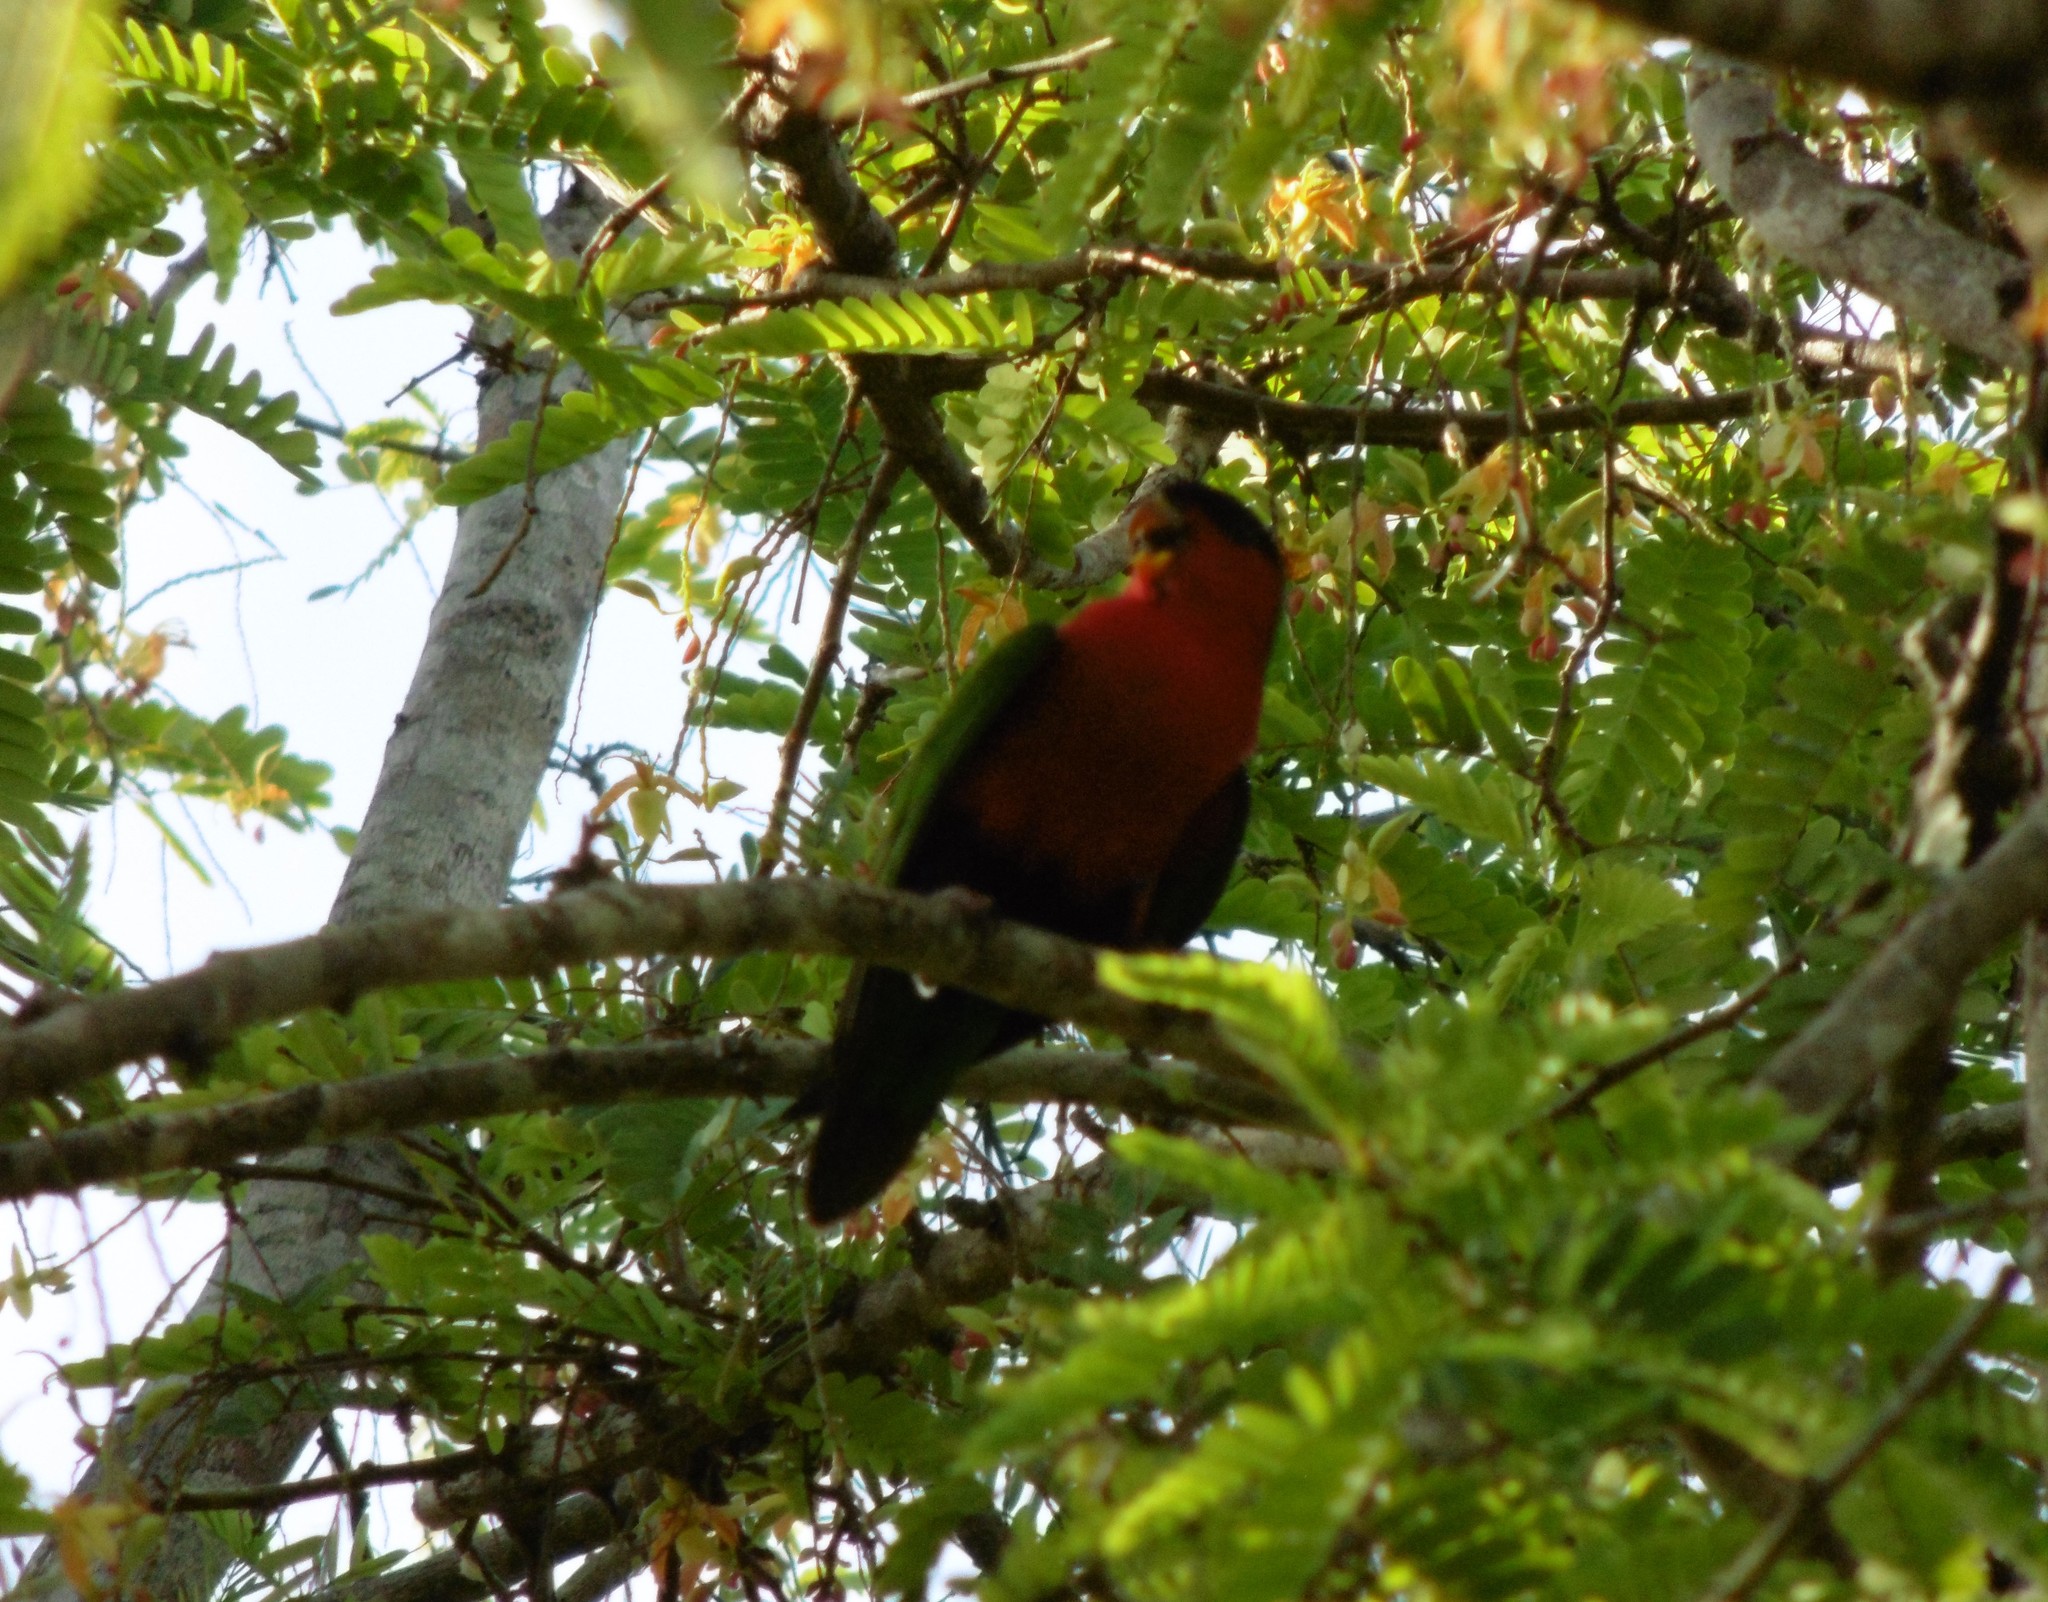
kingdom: Animalia
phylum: Chordata
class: Aves
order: Psittaciformes
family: Psittacidae
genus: Phigys
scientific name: Phigys solitarius
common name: Collared lory
